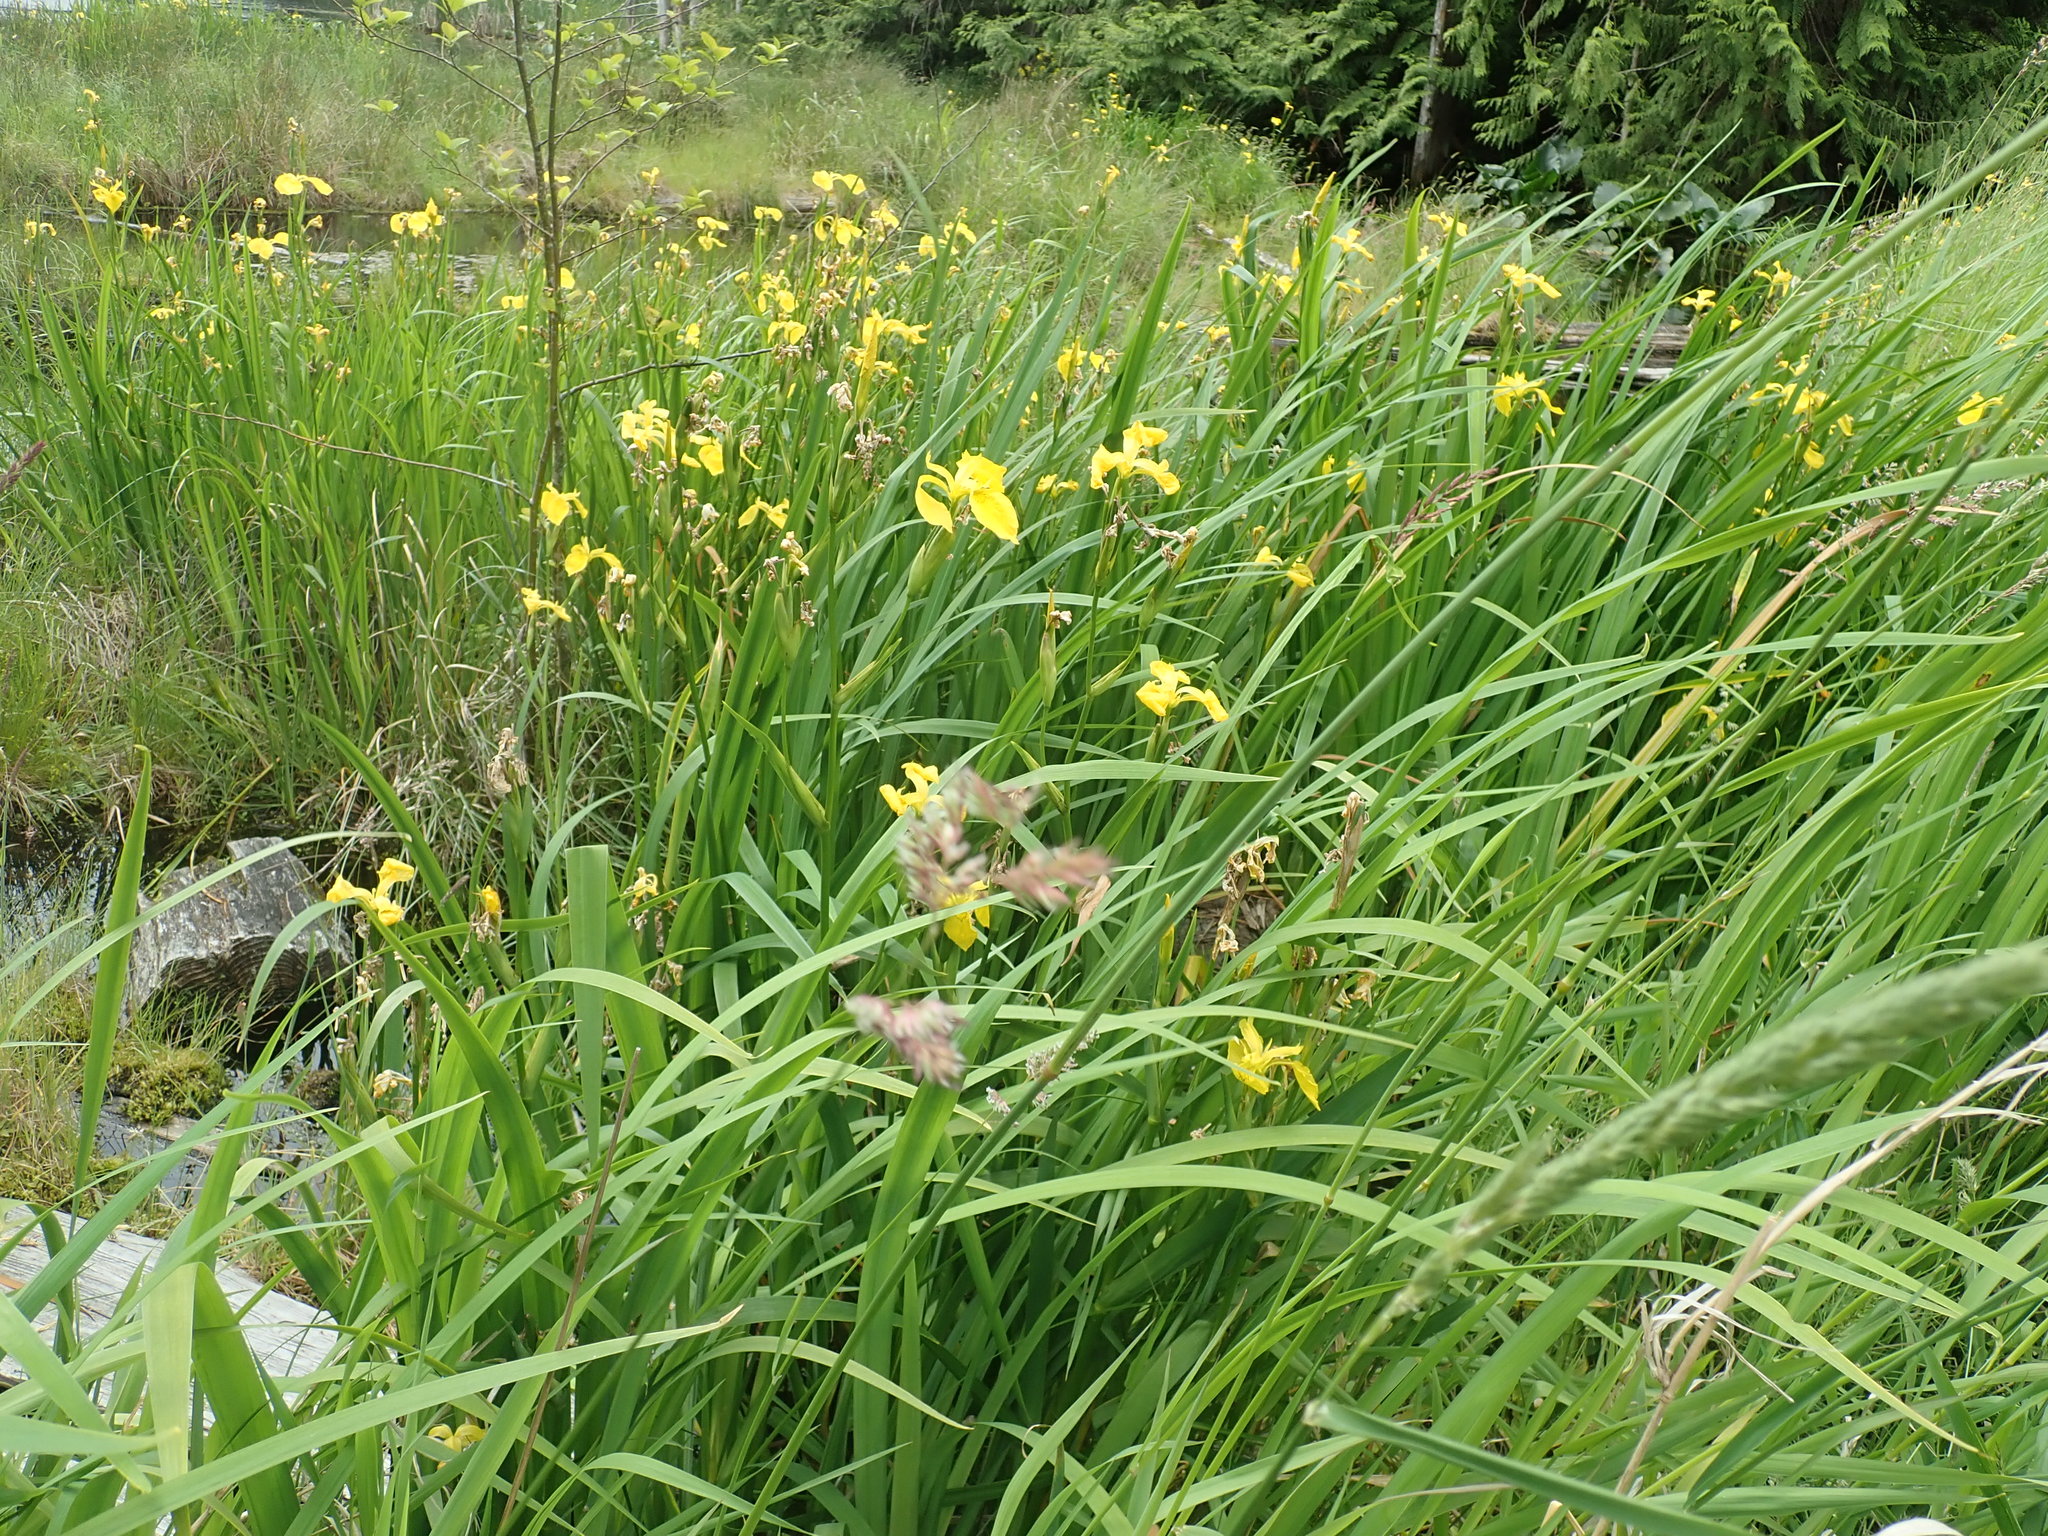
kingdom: Plantae
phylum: Tracheophyta
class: Liliopsida
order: Asparagales
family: Iridaceae
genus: Iris
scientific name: Iris pseudacorus
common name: Yellow flag
